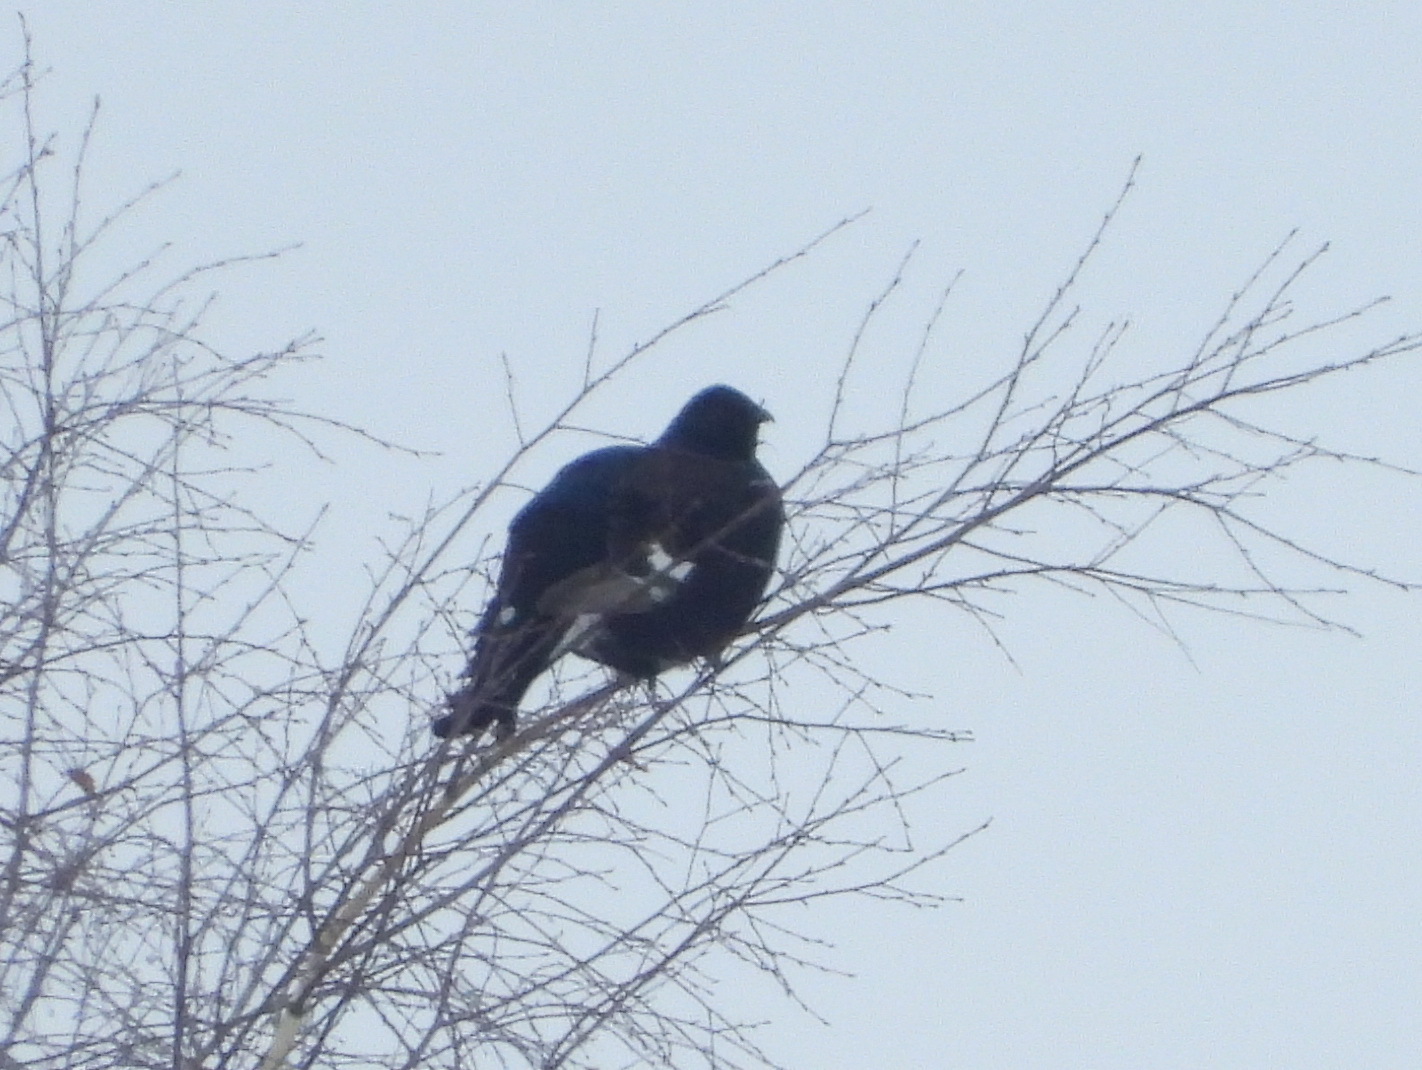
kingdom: Animalia
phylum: Chordata
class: Aves
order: Galliformes
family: Phasianidae
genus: Lyrurus
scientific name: Lyrurus tetrix
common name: Black grouse
